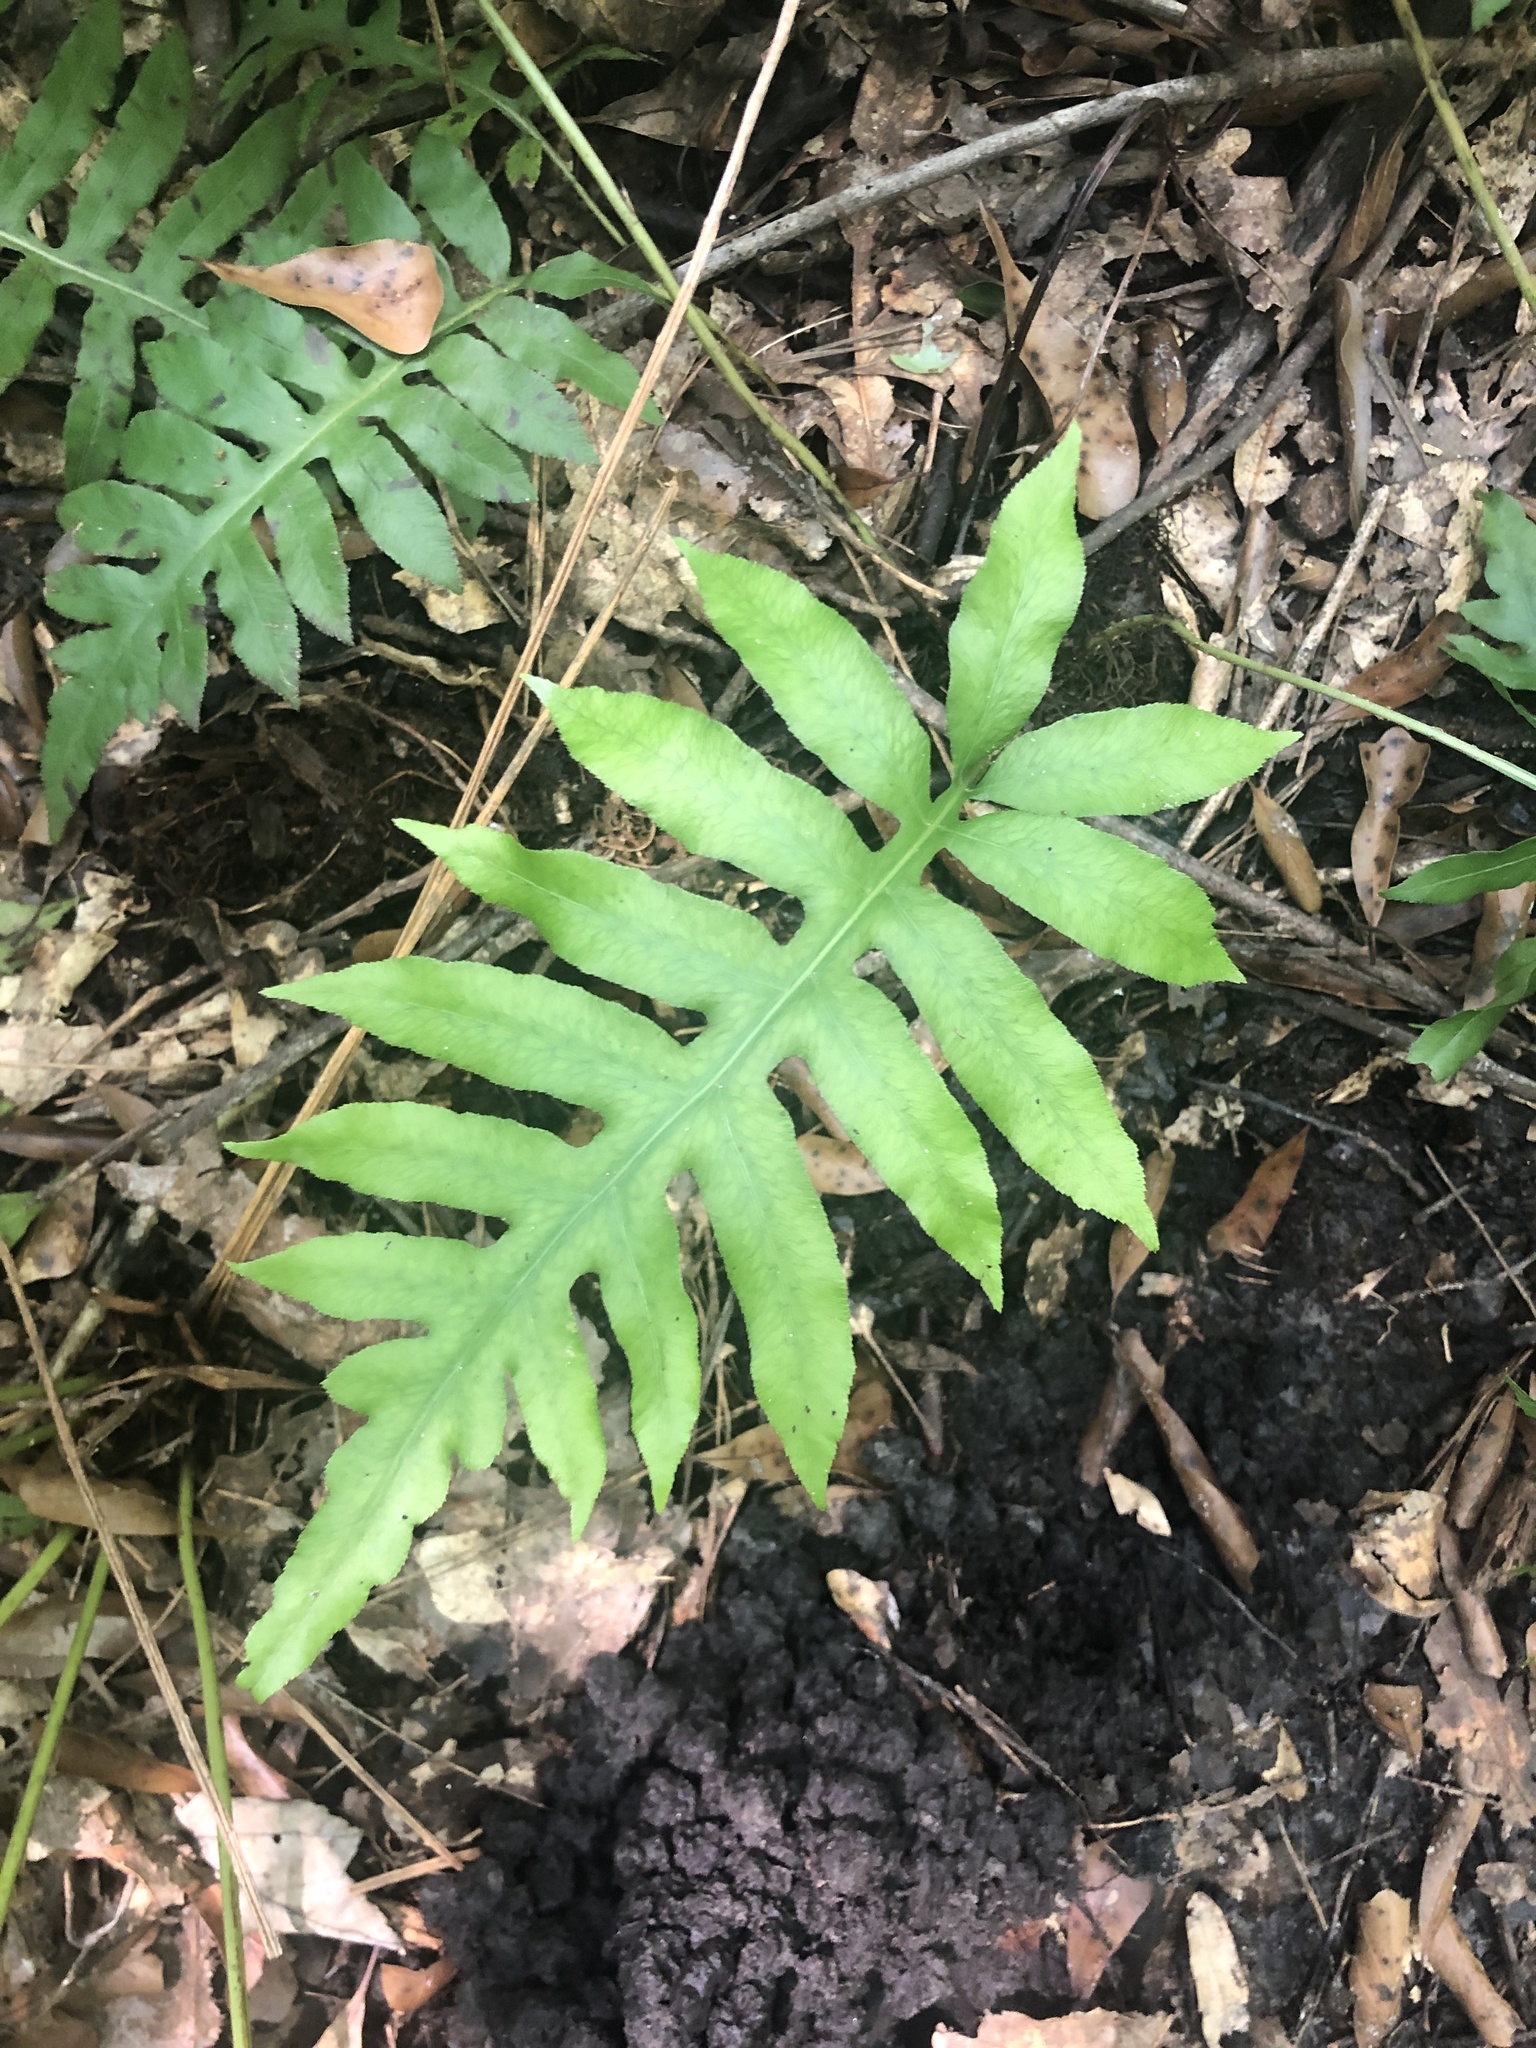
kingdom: Plantae
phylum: Tracheophyta
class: Polypodiopsida
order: Polypodiales
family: Blechnaceae
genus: Lorinseria
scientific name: Lorinseria areolata
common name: Dwarf chain fern
